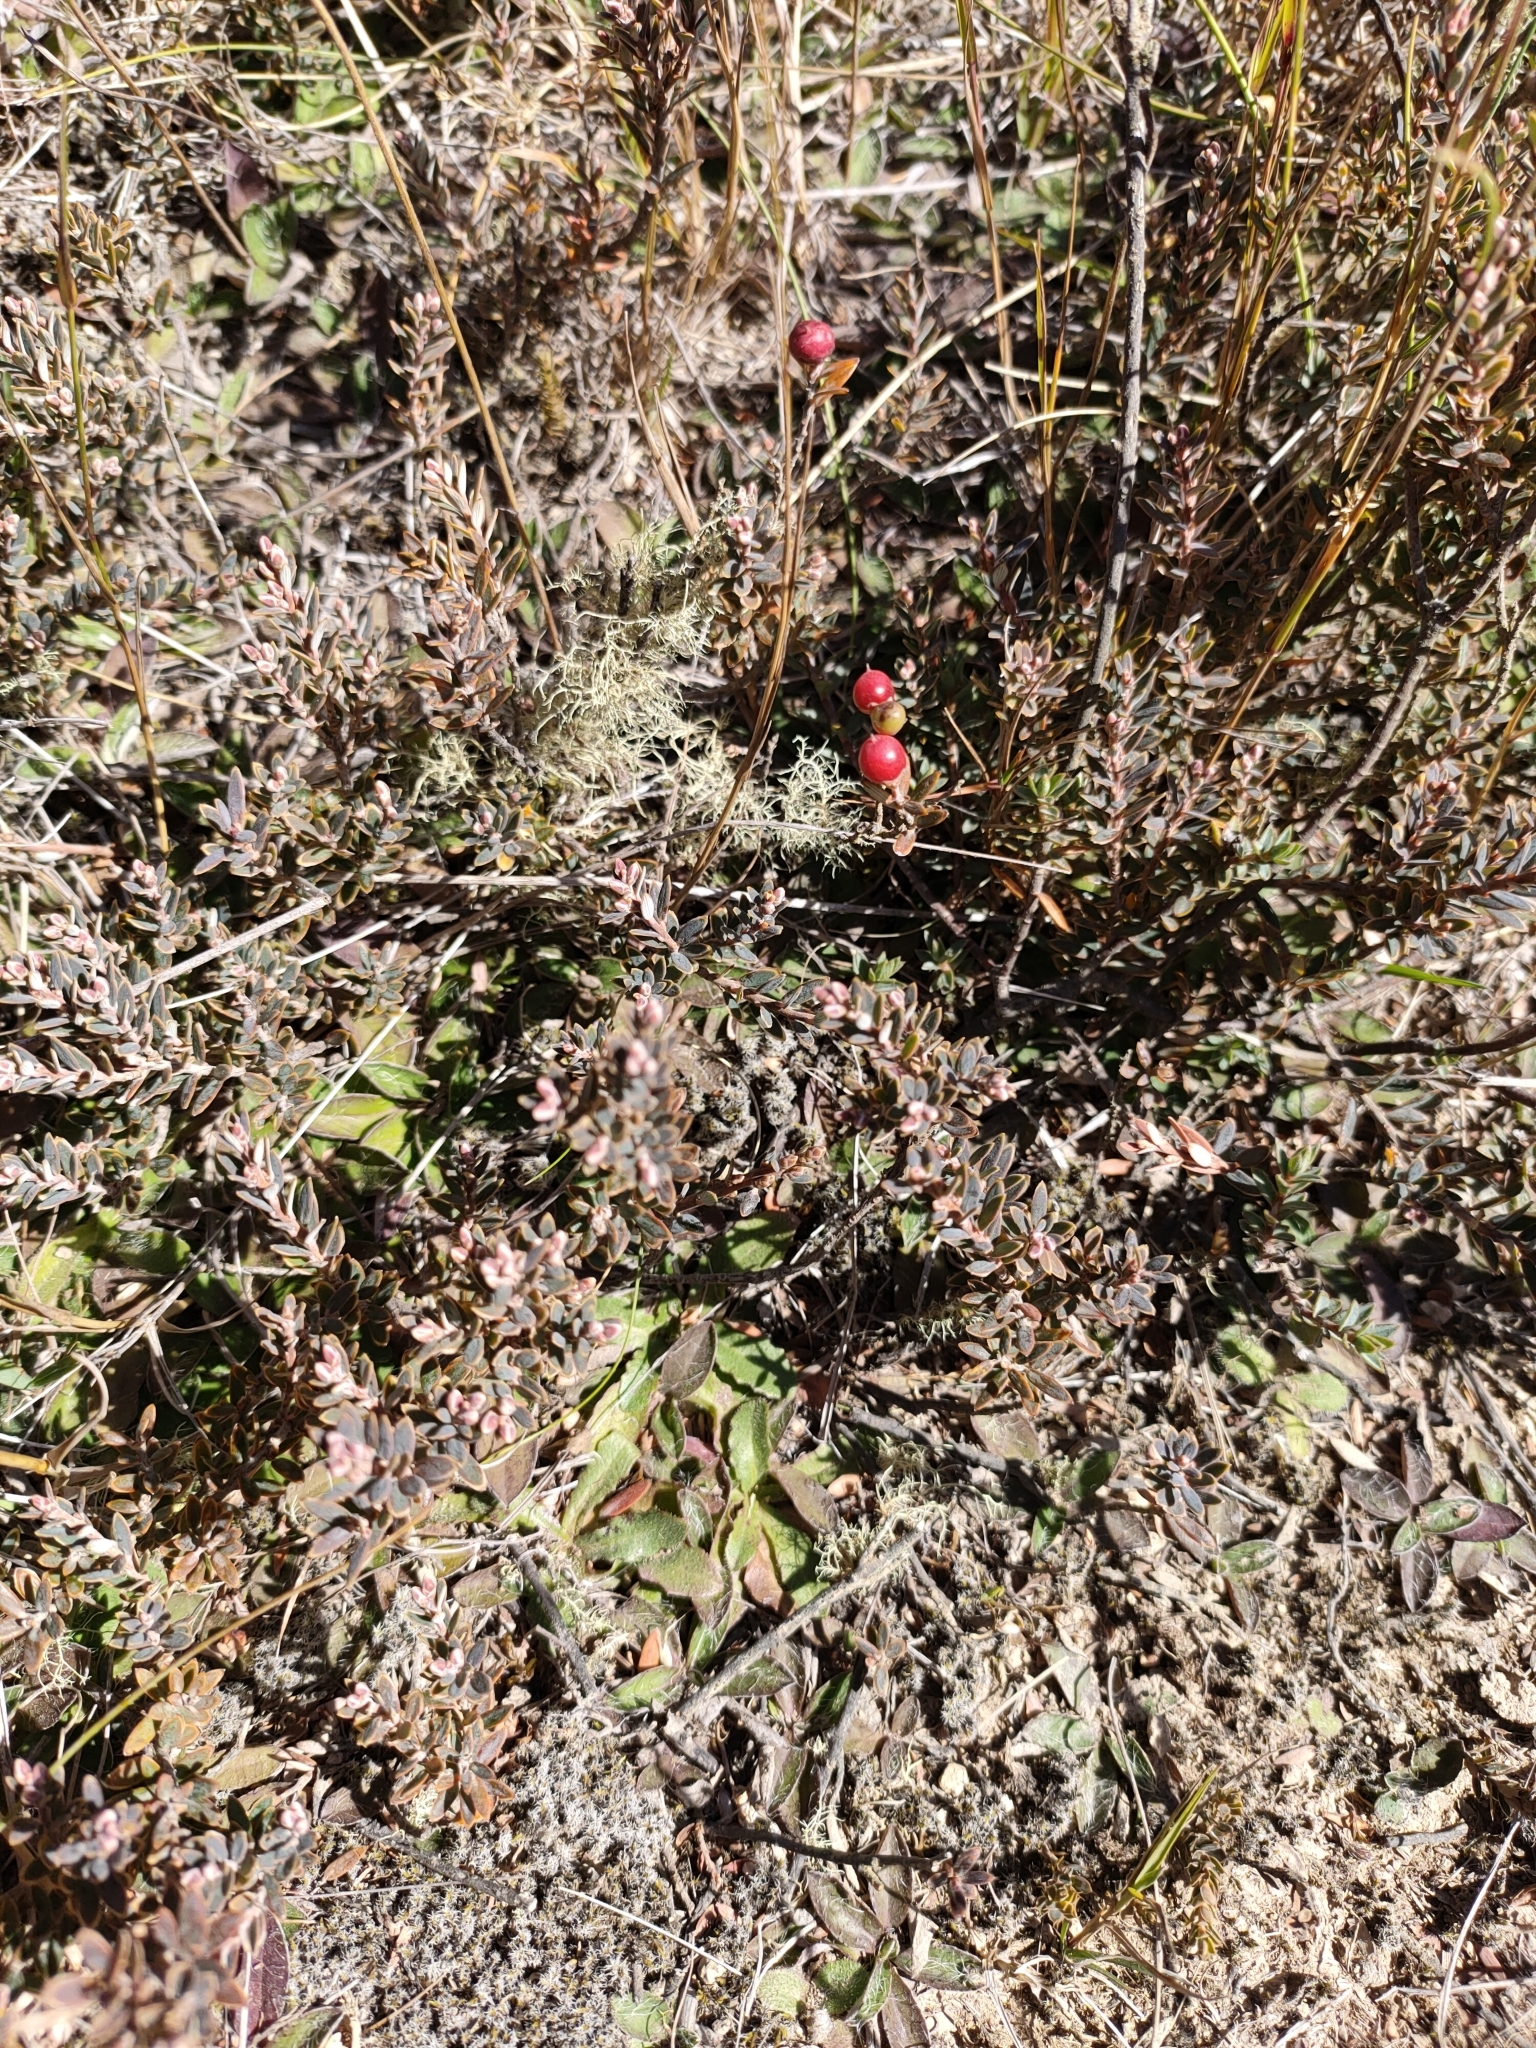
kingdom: Plantae
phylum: Tracheophyta
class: Magnoliopsida
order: Ericales
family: Ericaceae
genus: Acrothamnus
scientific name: Acrothamnus colensoi
